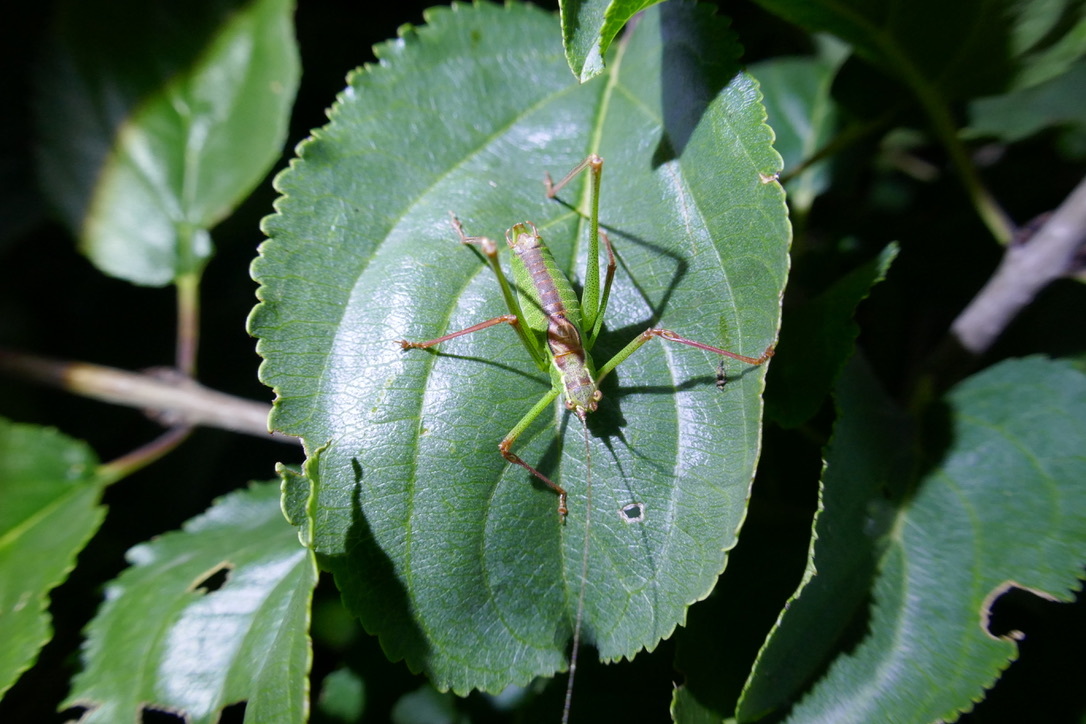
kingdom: Animalia
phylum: Arthropoda
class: Insecta
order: Orthoptera
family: Tettigoniidae
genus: Leptophyes
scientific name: Leptophyes punctatissima
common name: Speckled bush-cricket
